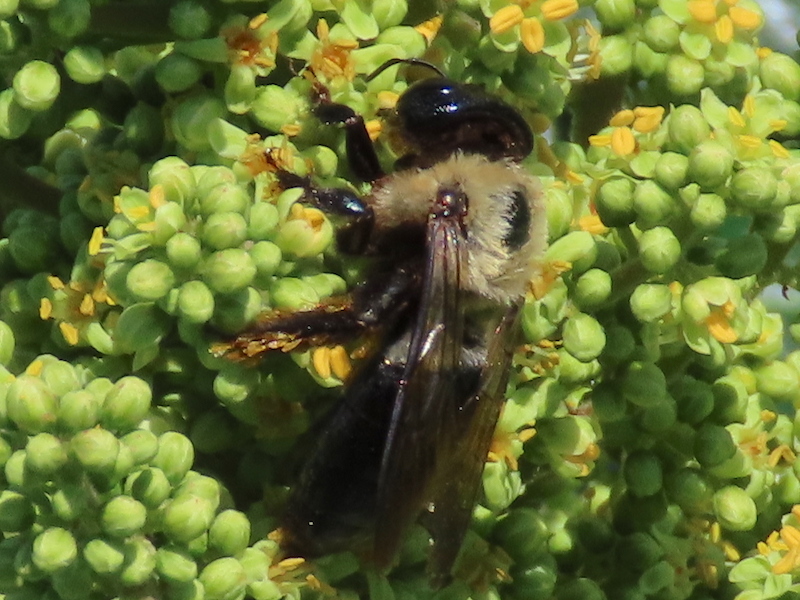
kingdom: Animalia
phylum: Arthropoda
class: Insecta
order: Hymenoptera
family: Apidae
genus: Xylocopa
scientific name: Xylocopa virginica
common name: Carpenter bee
